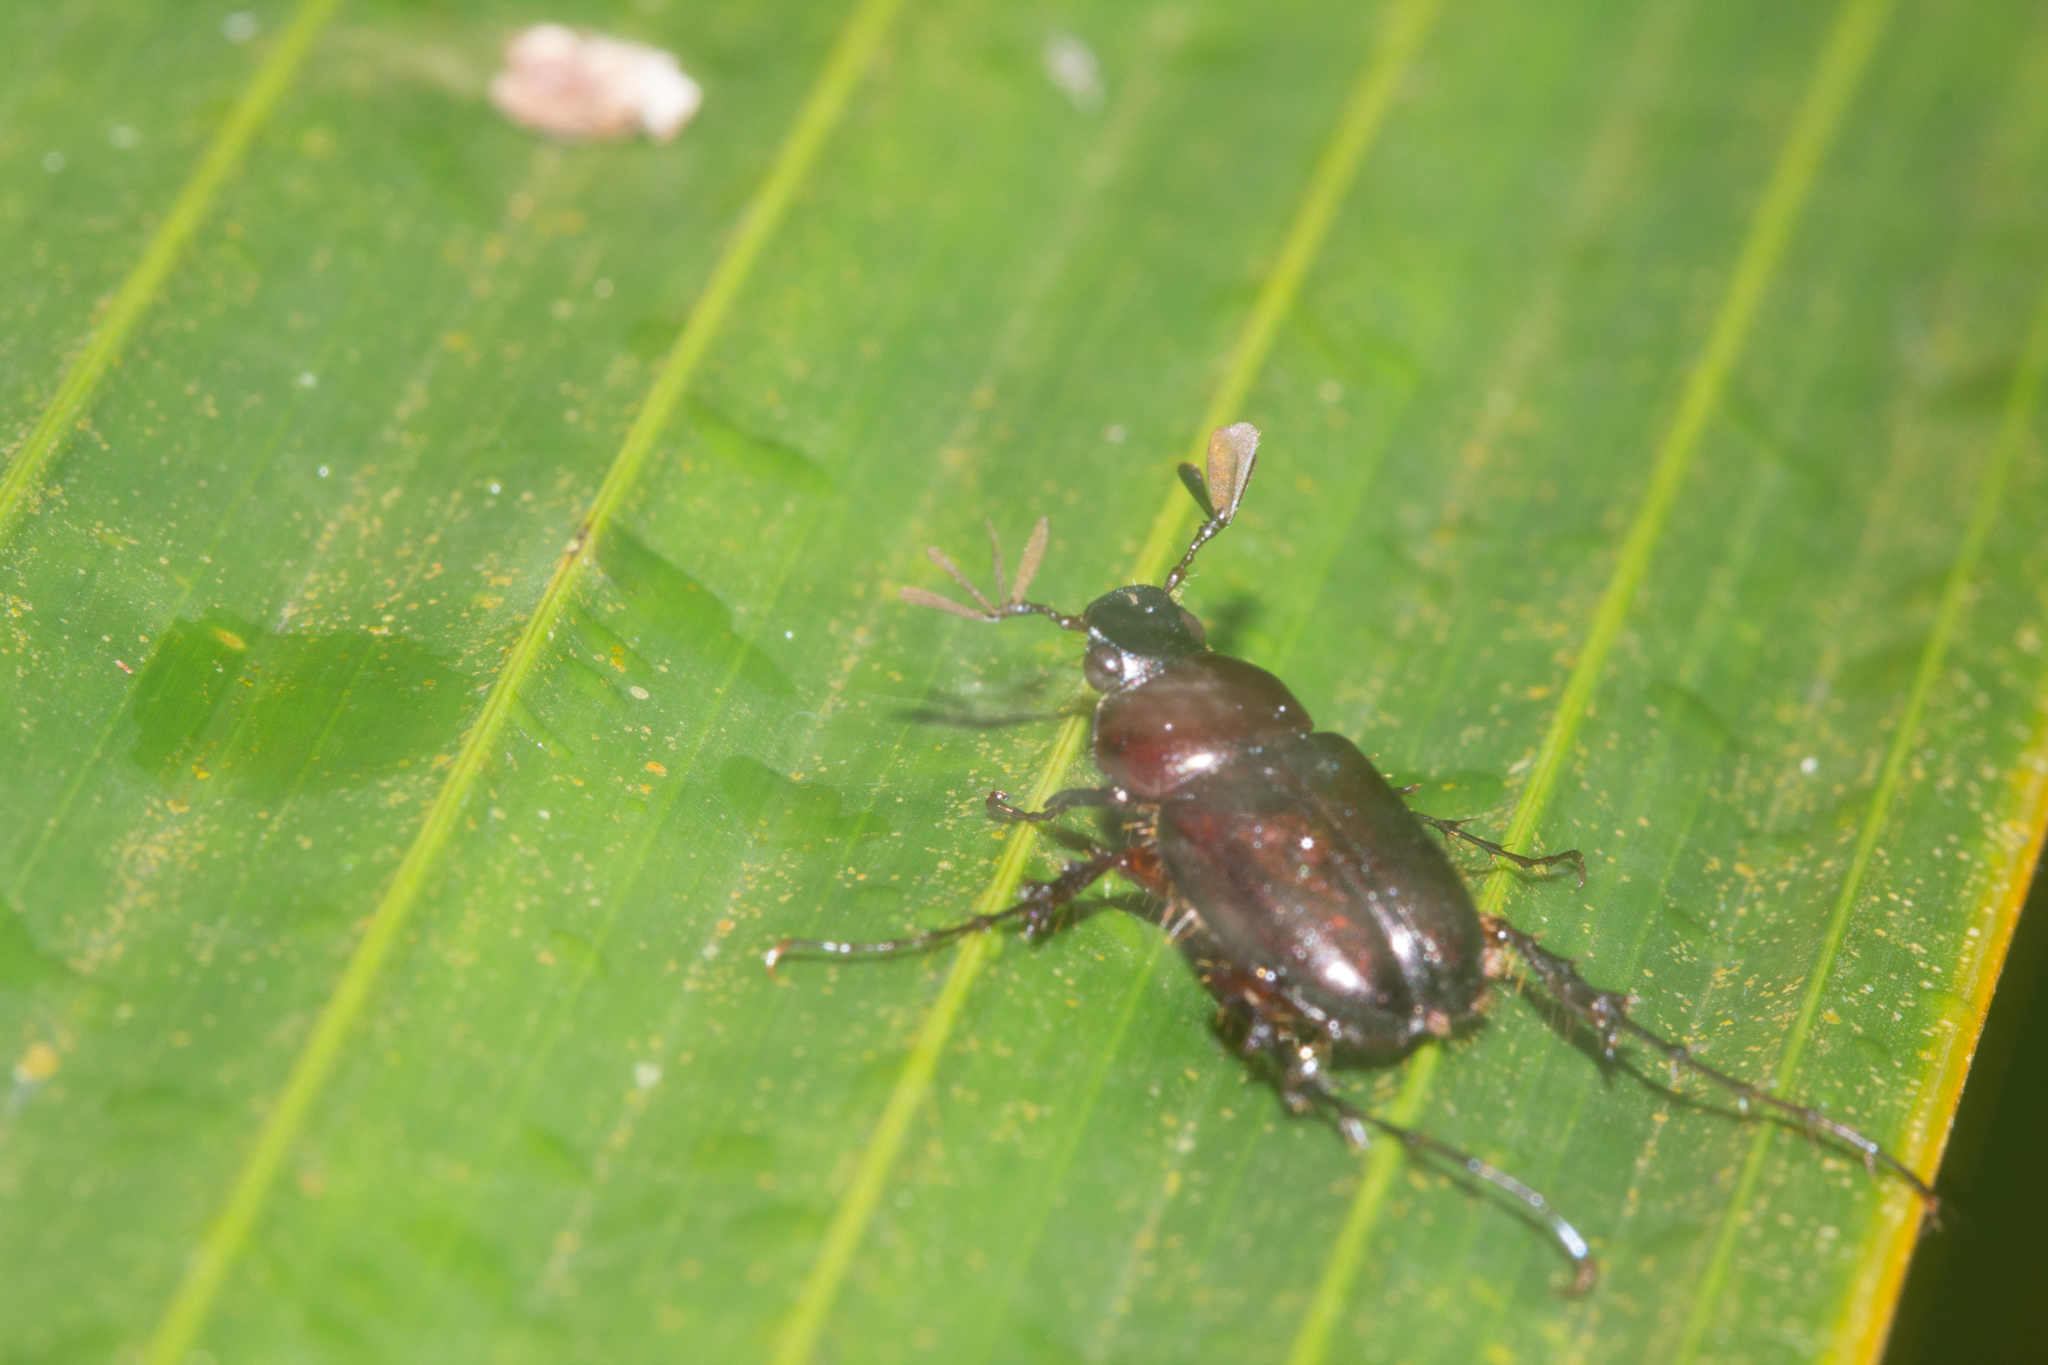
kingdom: Animalia
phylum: Arthropoda
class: Insecta
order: Coleoptera
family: Scarabaeidae
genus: Perissosoma
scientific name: Perissosoma aenescens
